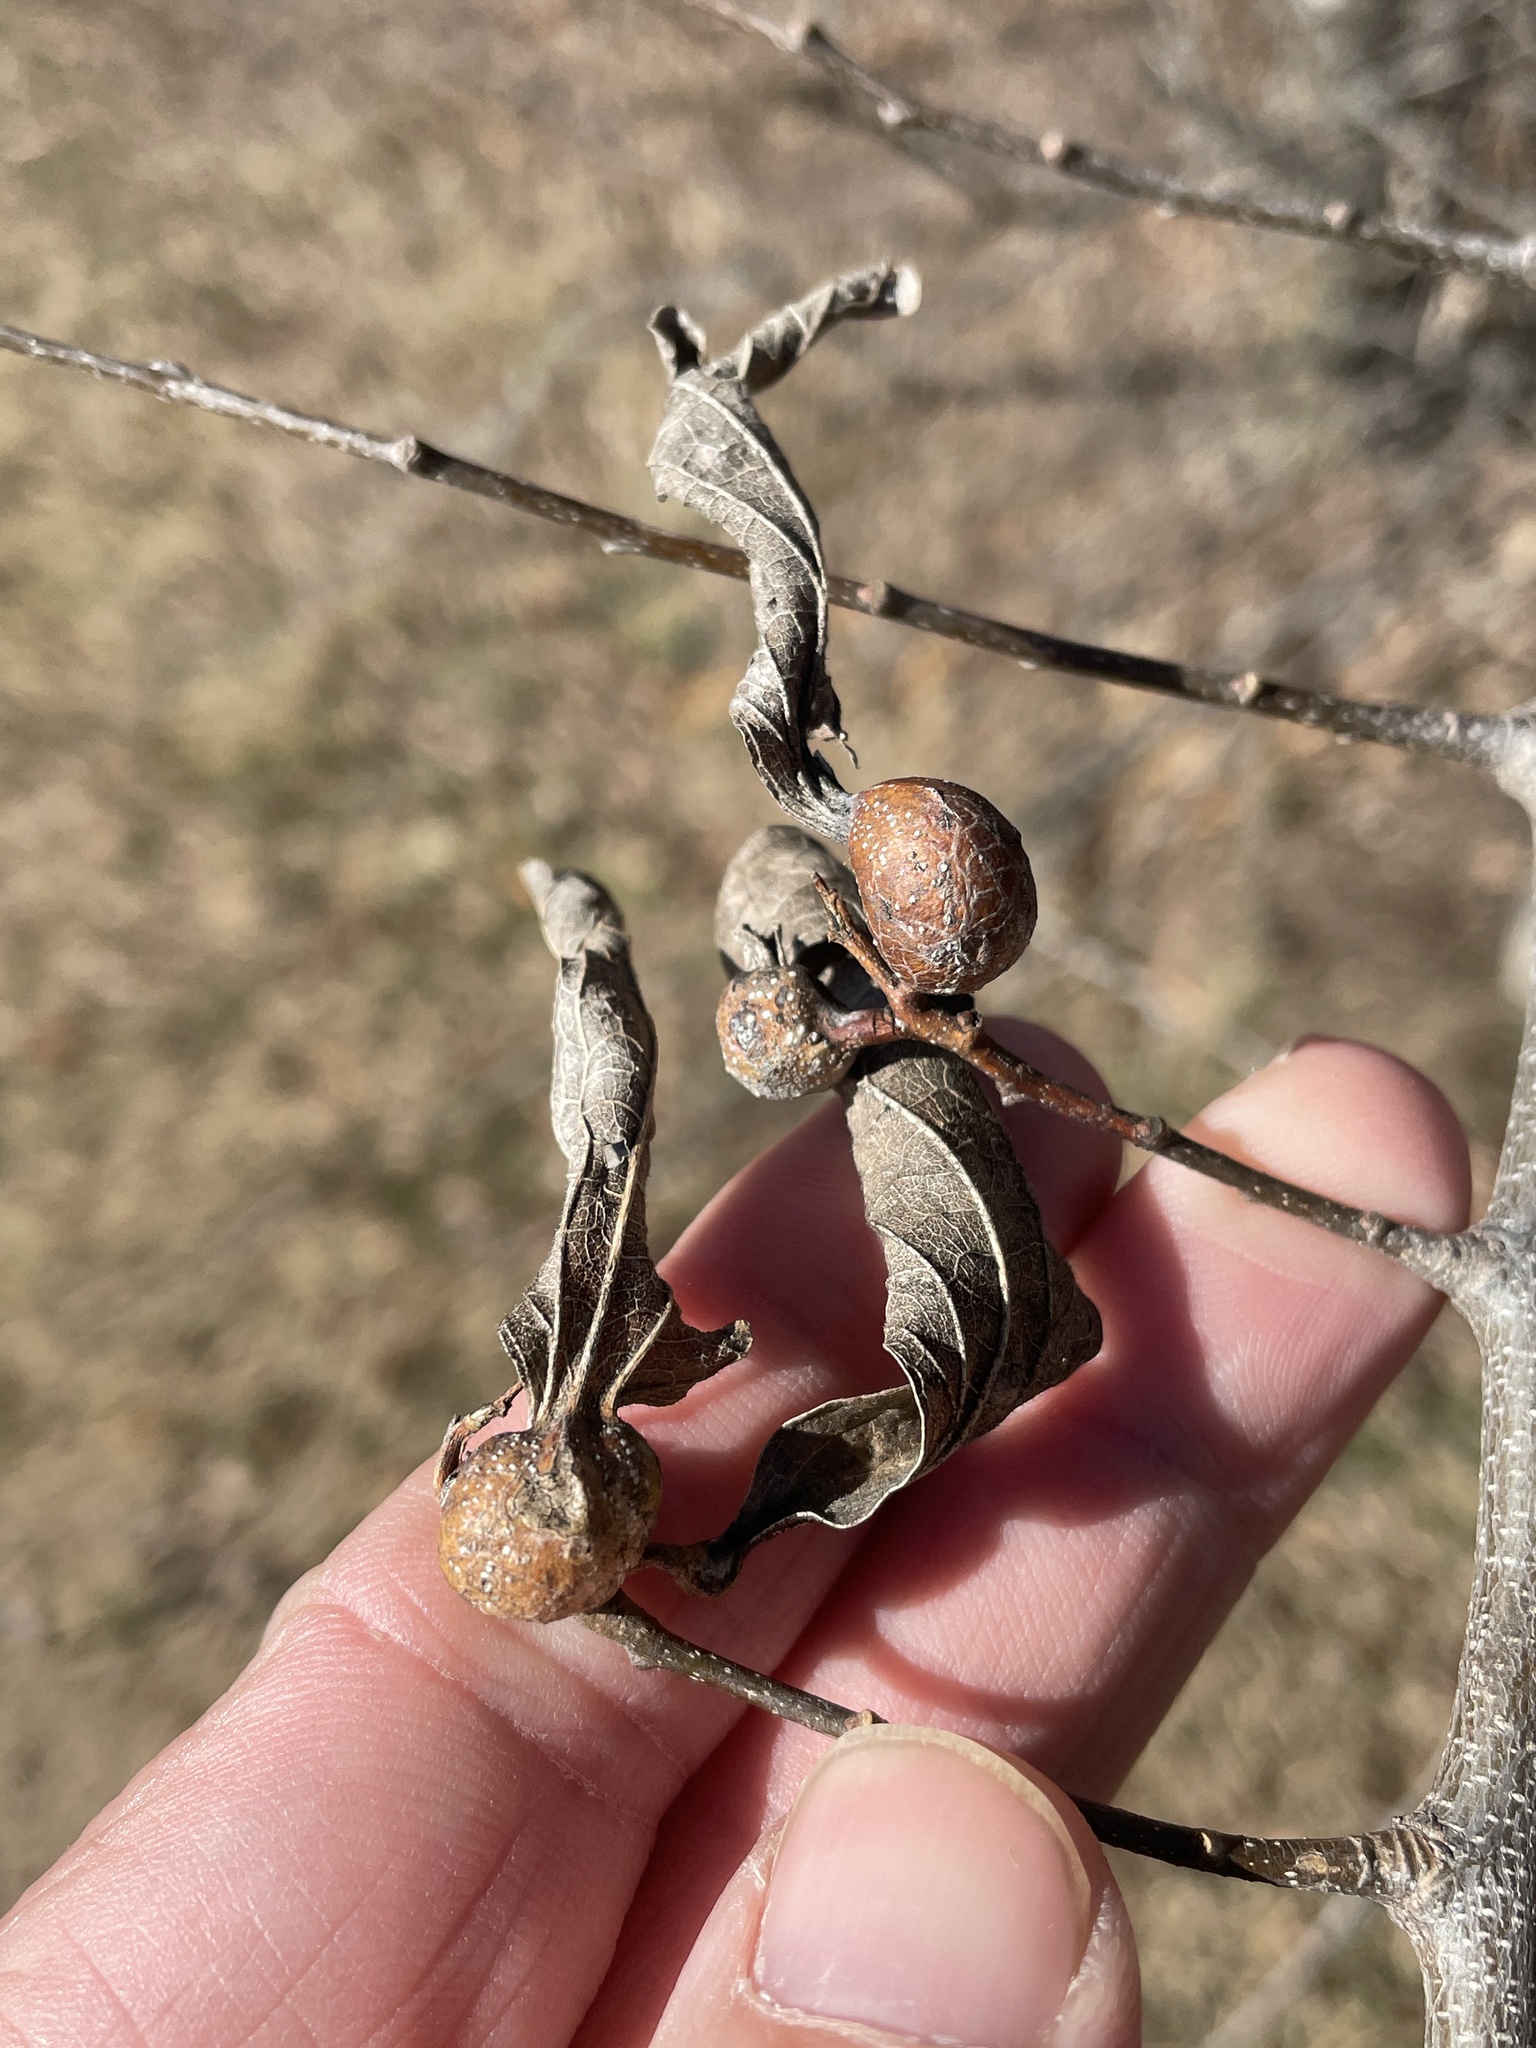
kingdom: Animalia
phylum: Arthropoda
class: Insecta
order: Hemiptera
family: Aphalaridae
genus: Pachypsylla
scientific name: Pachypsylla venusta
